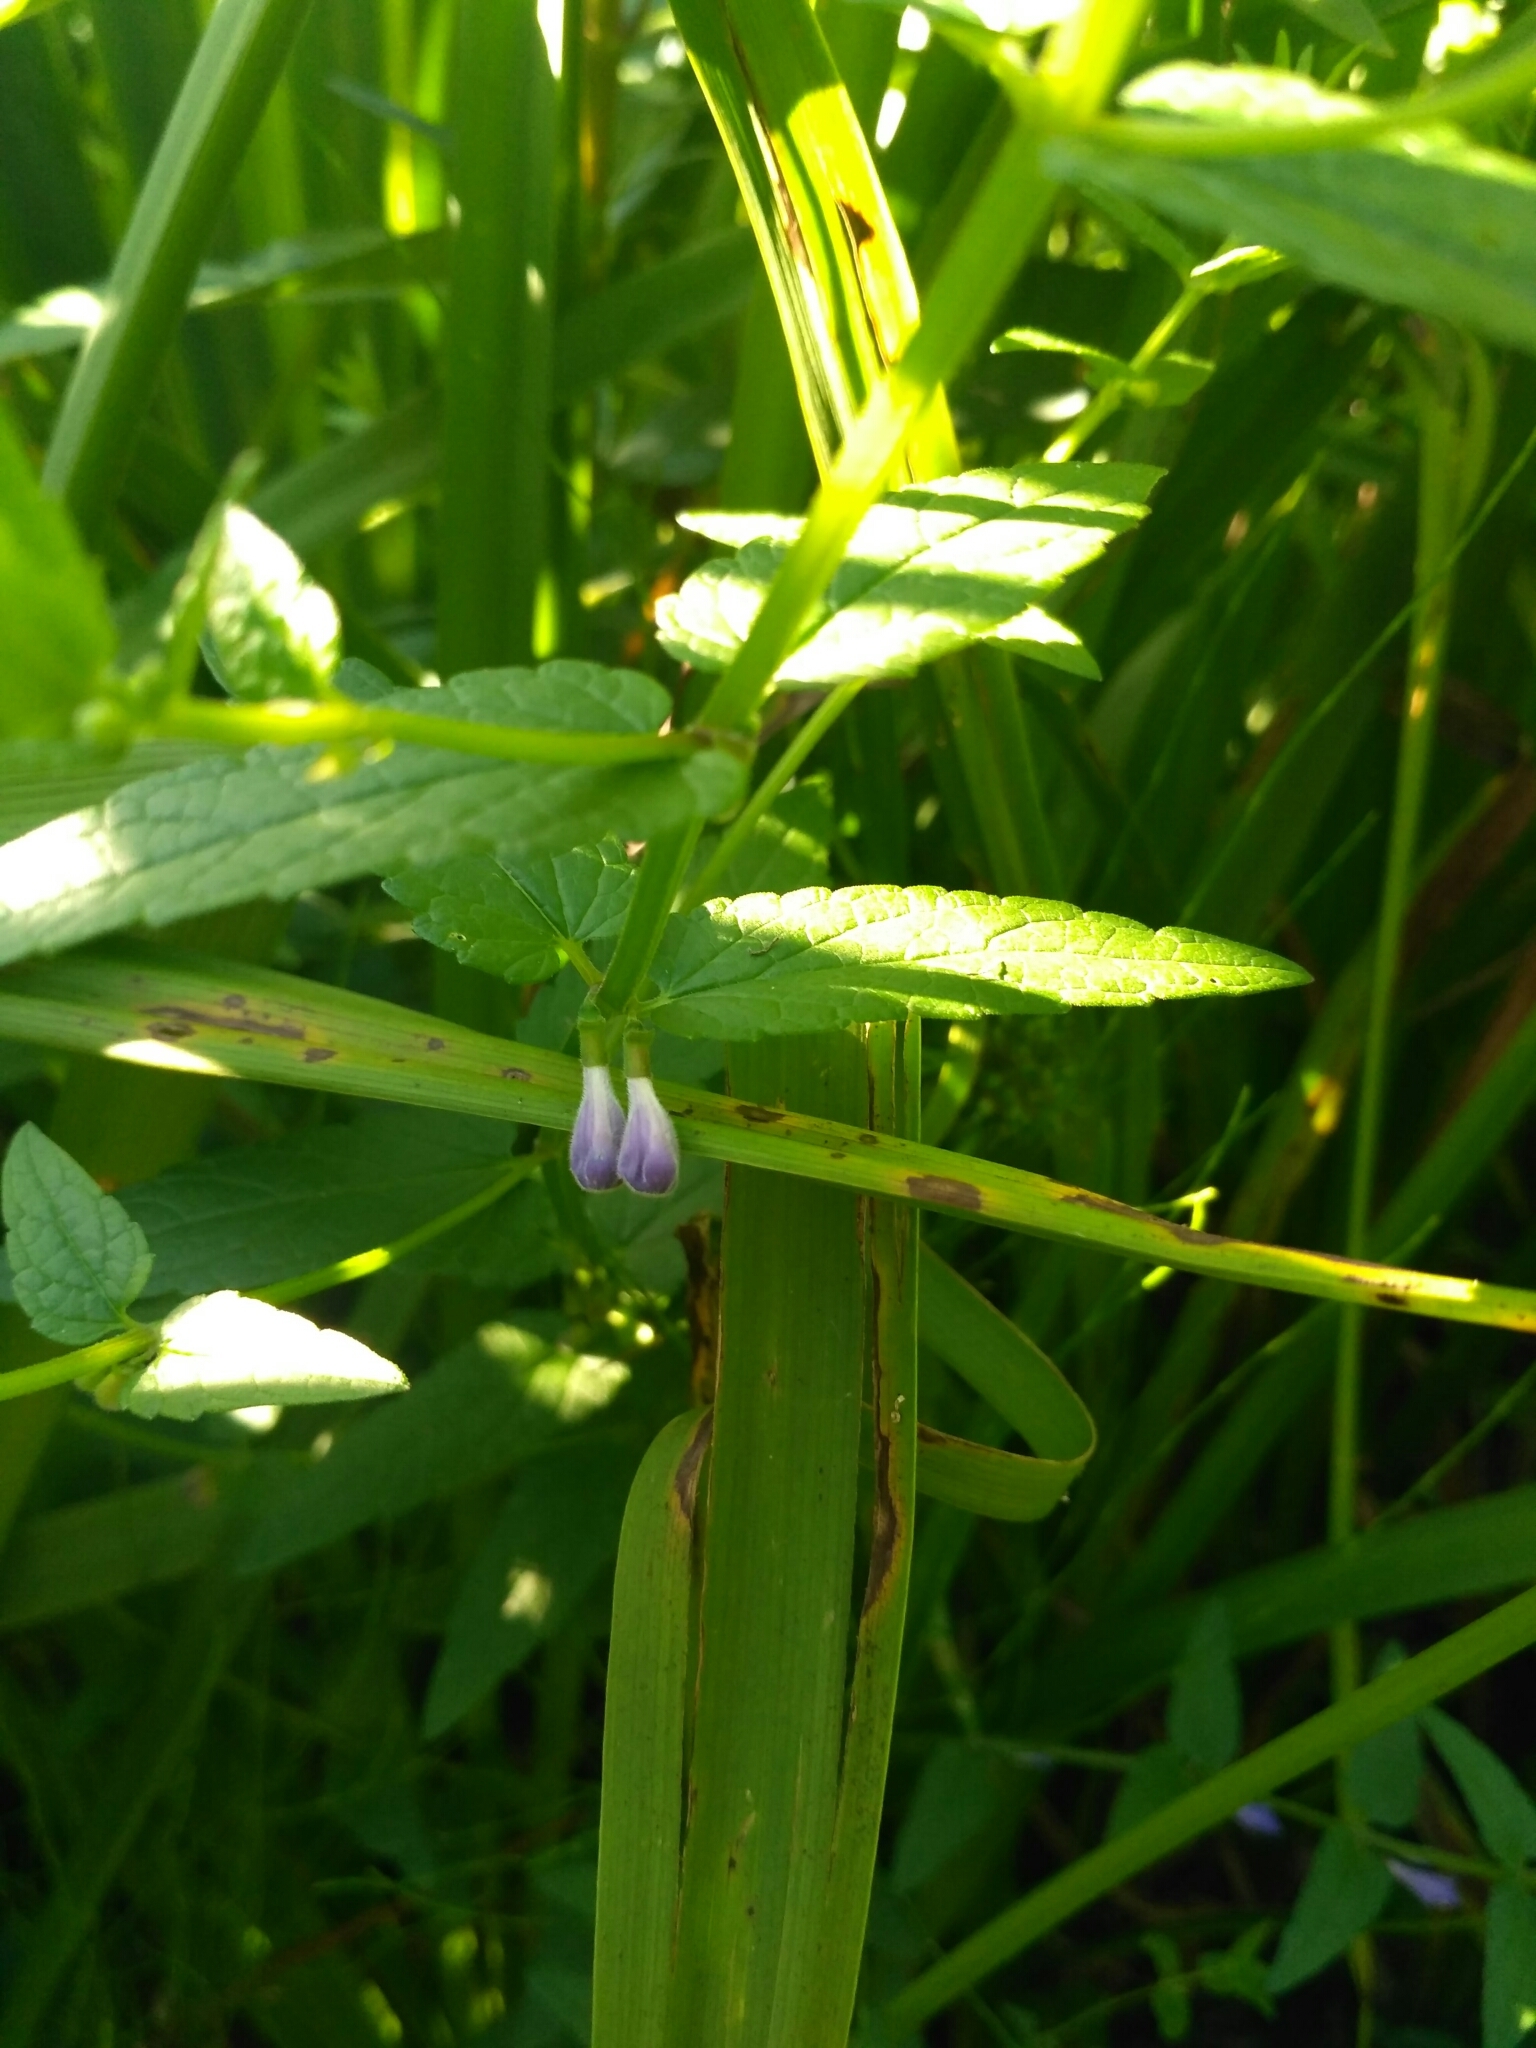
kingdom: Plantae
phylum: Tracheophyta
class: Magnoliopsida
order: Lamiales
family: Lamiaceae
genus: Scutellaria
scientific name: Scutellaria galericulata
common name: Skullcap
